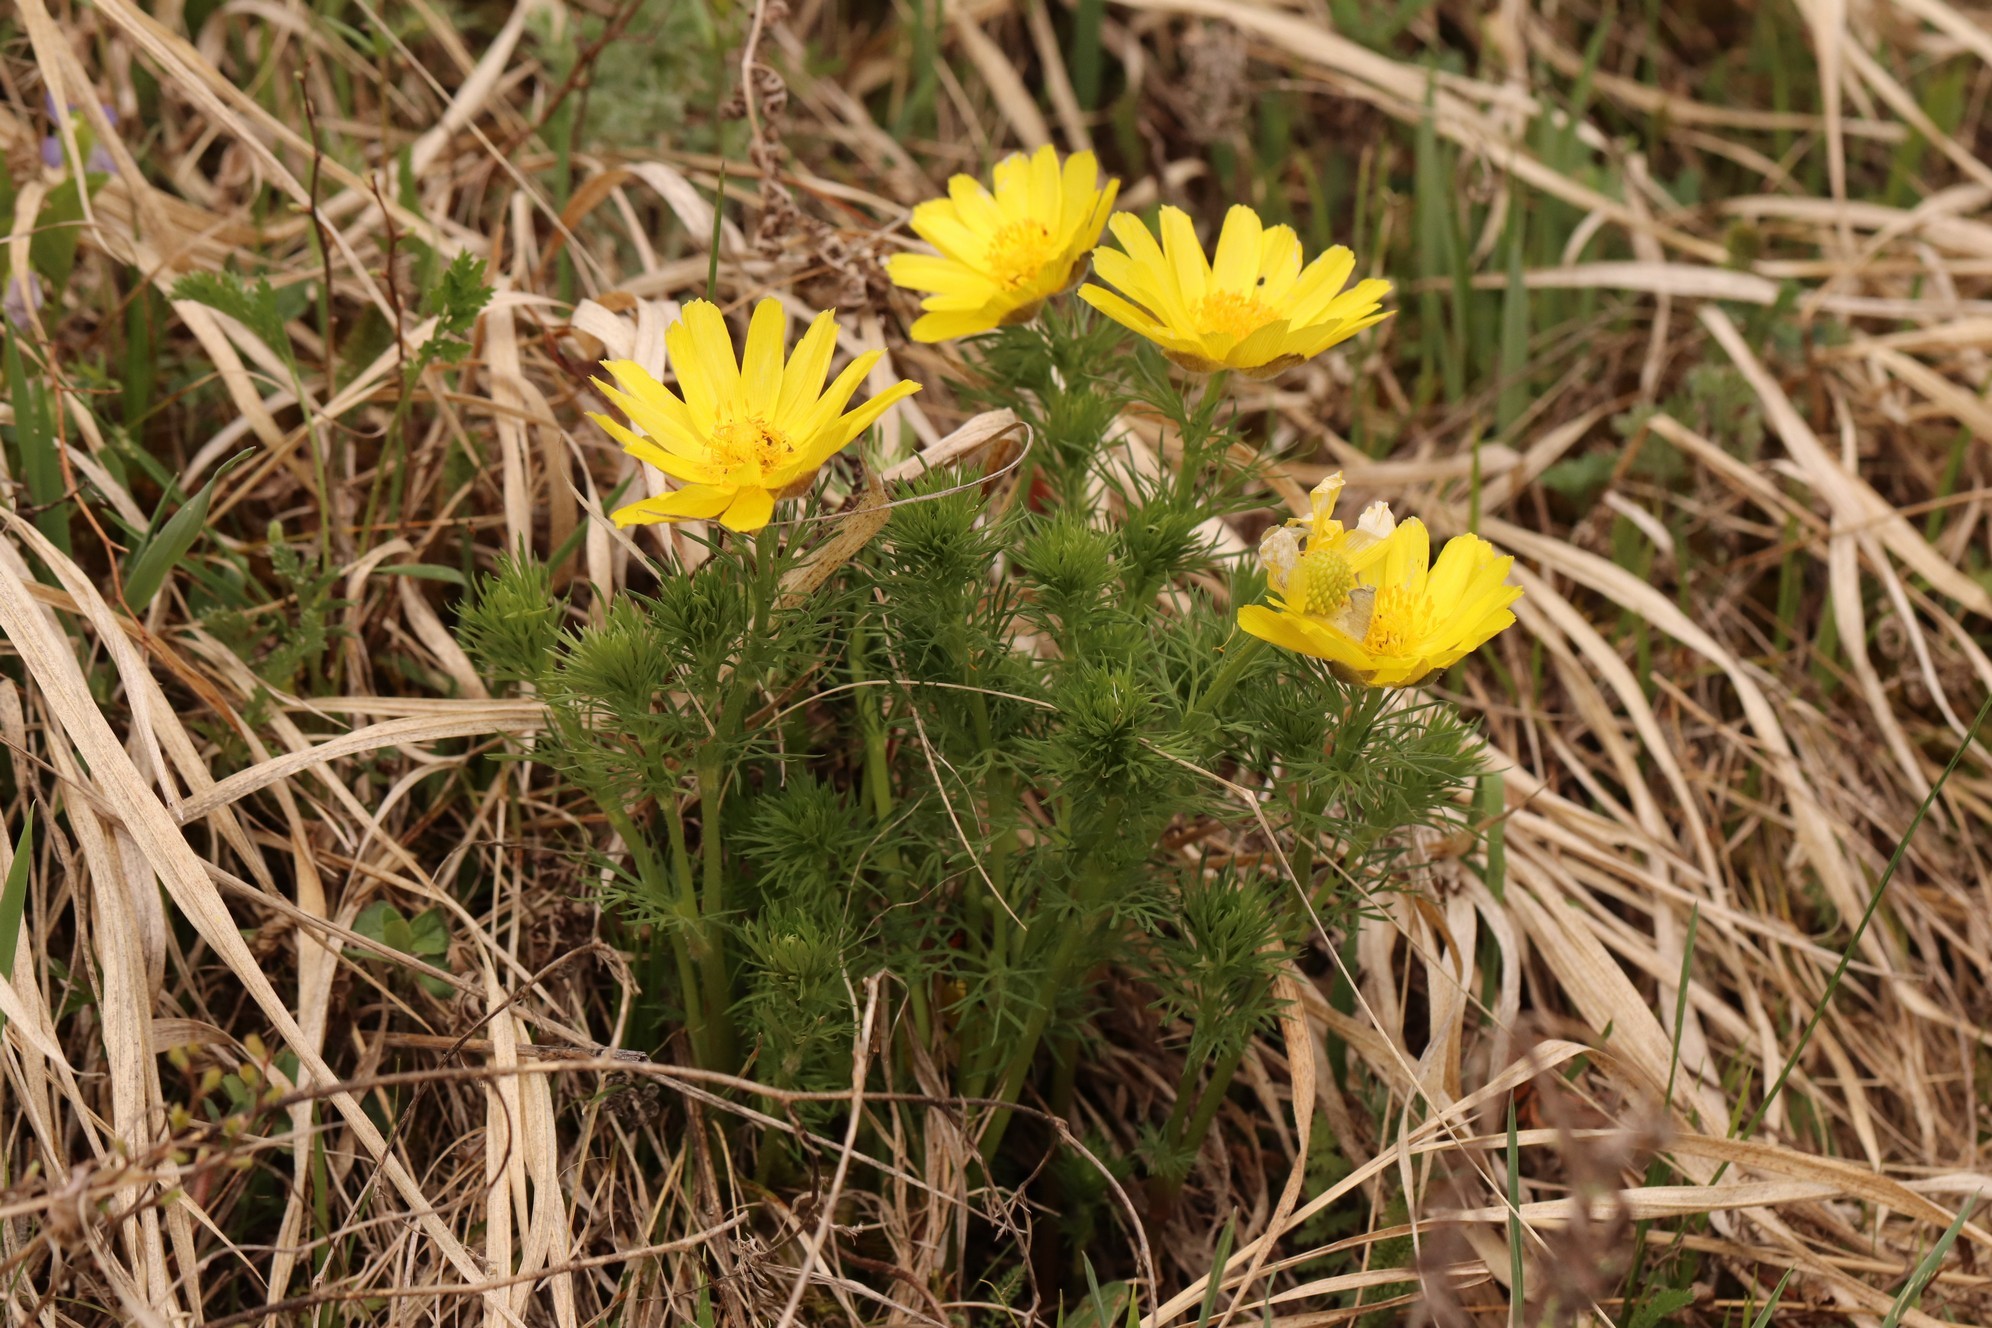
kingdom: Plantae
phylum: Tracheophyta
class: Magnoliopsida
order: Ranunculales
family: Ranunculaceae
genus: Adonis
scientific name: Adonis vernalis
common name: Yellow pheasants-eye
